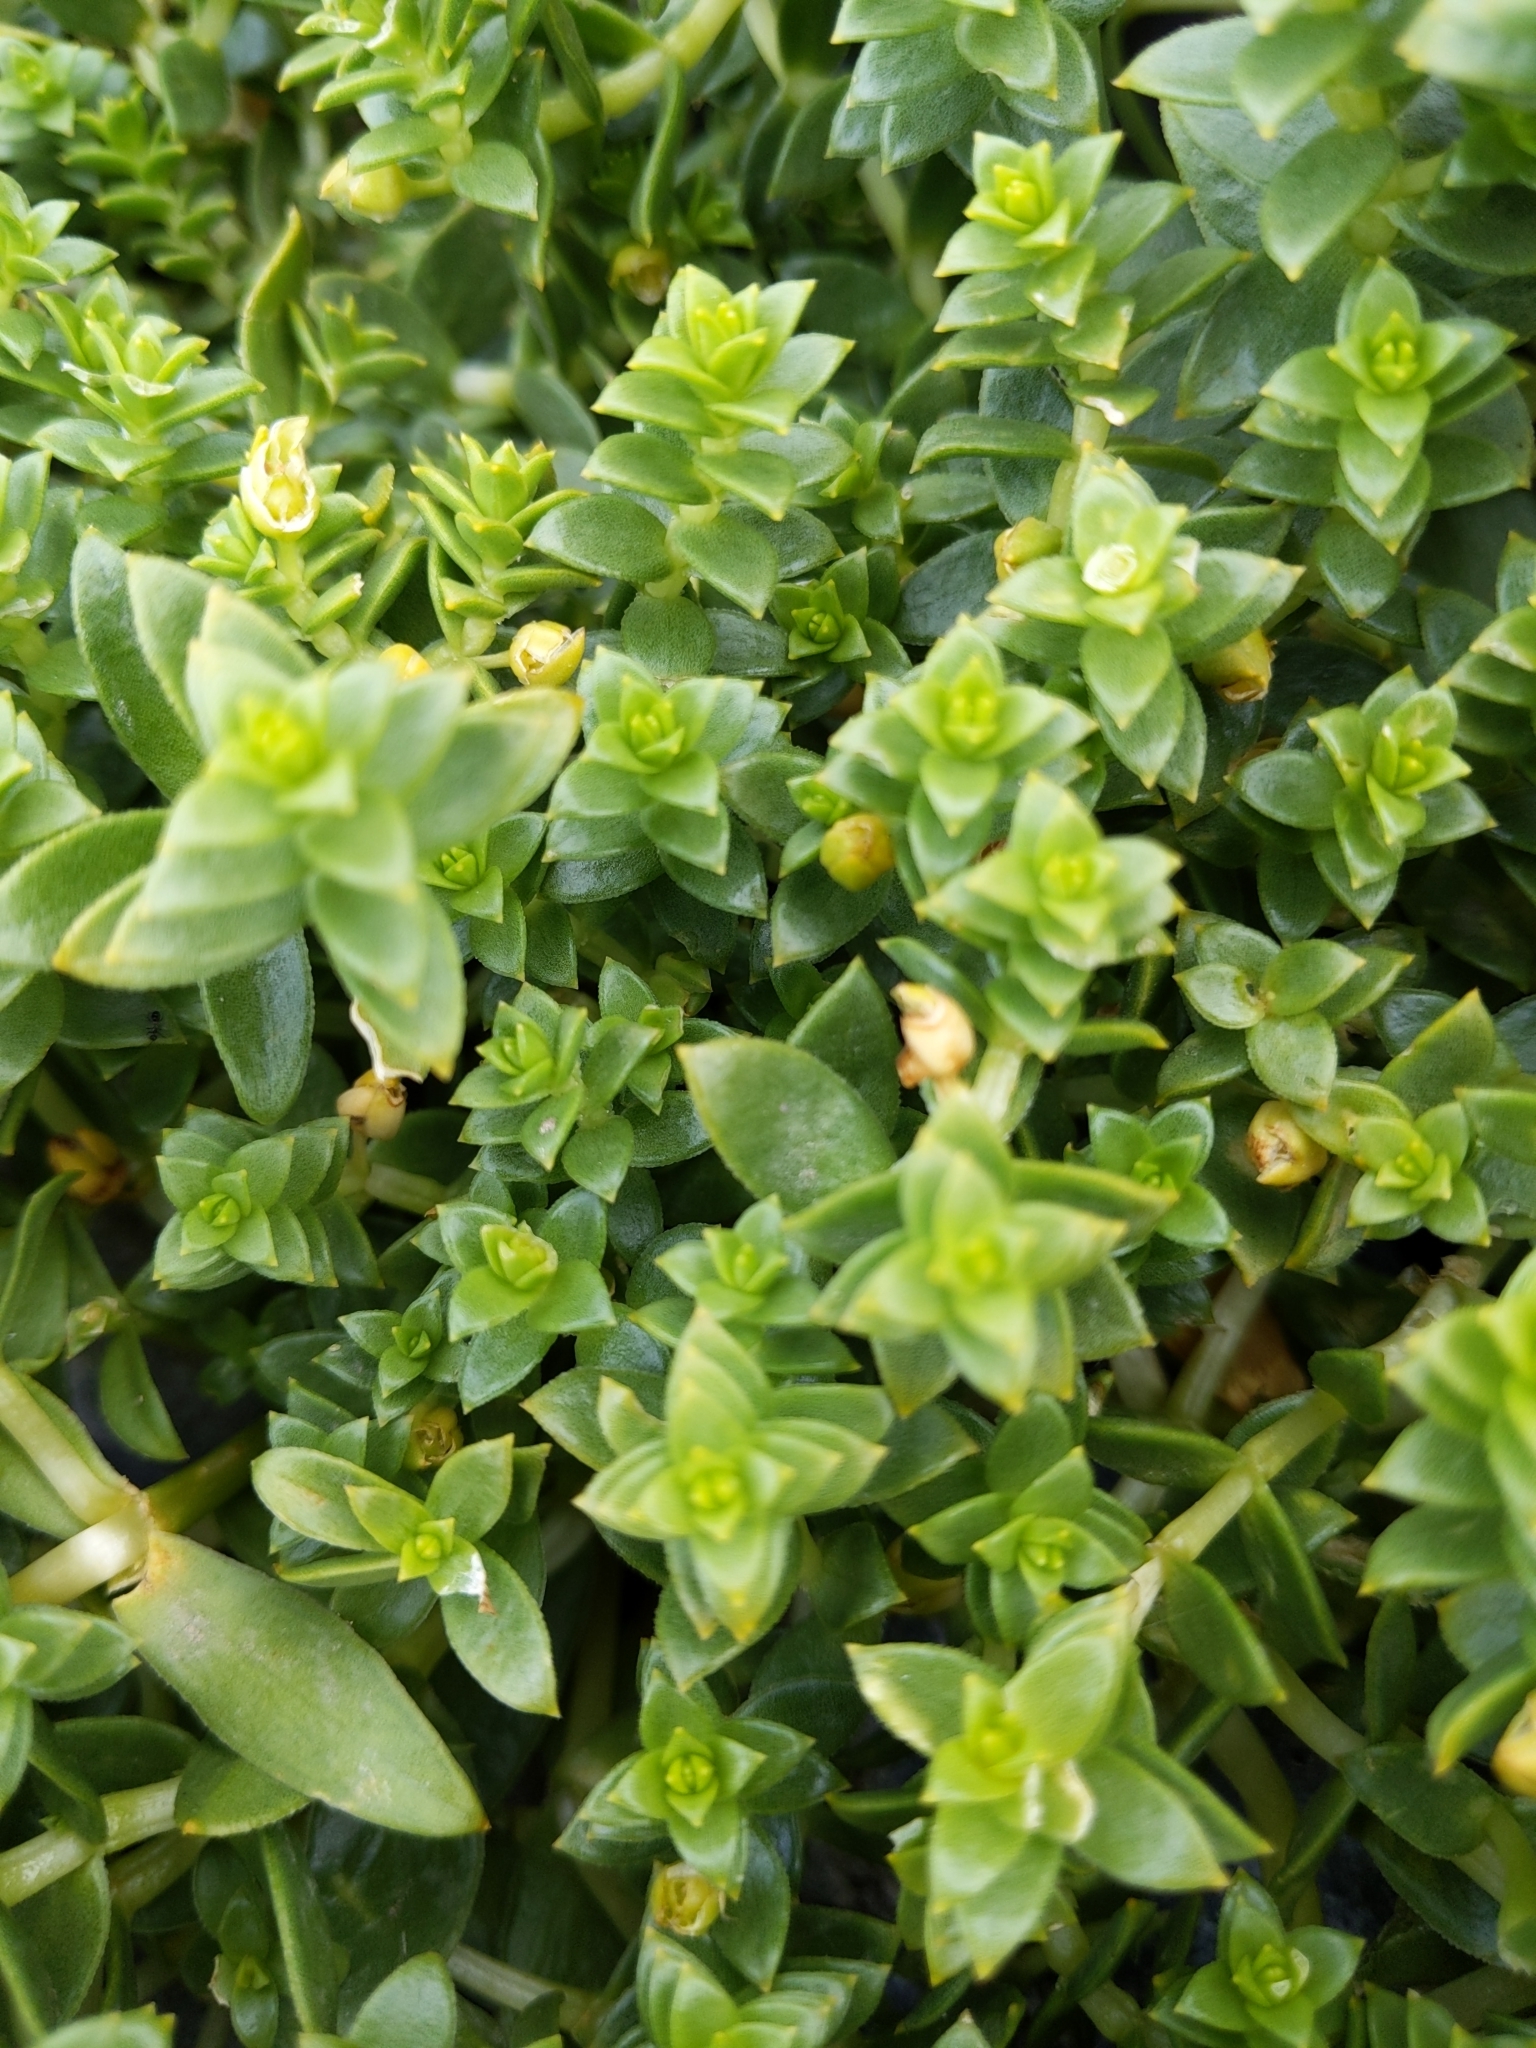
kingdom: Plantae
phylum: Tracheophyta
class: Magnoliopsida
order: Caryophyllales
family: Caryophyllaceae
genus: Honckenya
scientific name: Honckenya peploides
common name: Sea sandwort
